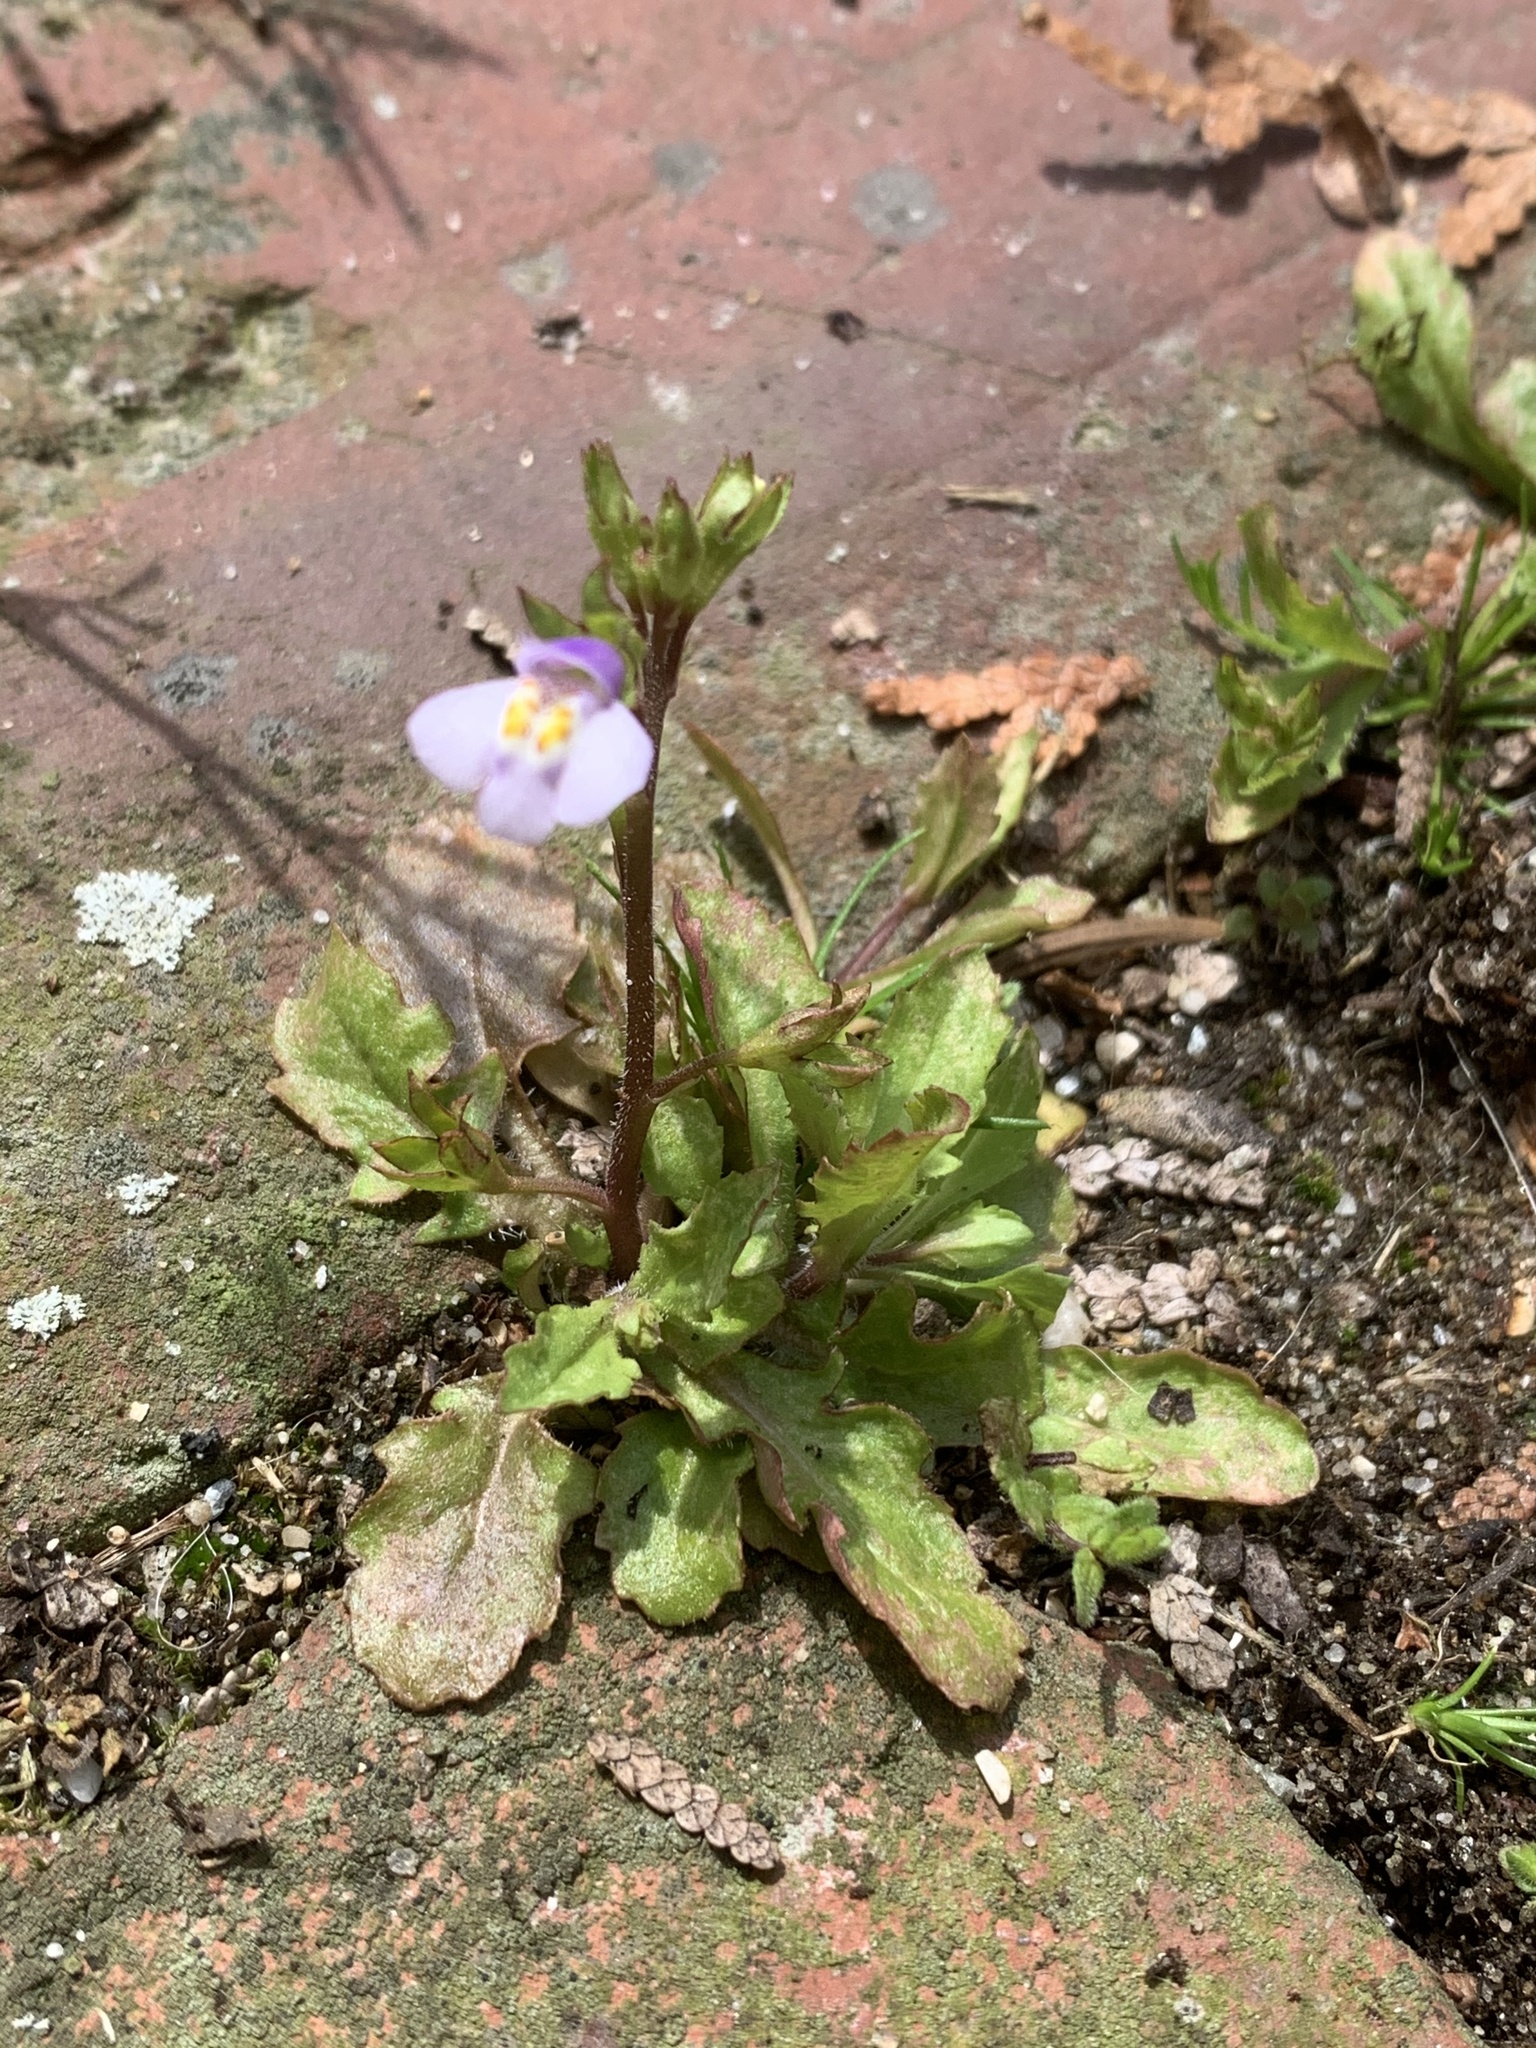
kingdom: Plantae
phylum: Tracheophyta
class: Magnoliopsida
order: Lamiales
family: Mazaceae
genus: Mazus
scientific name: Mazus pumilus
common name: Japanese mazus
